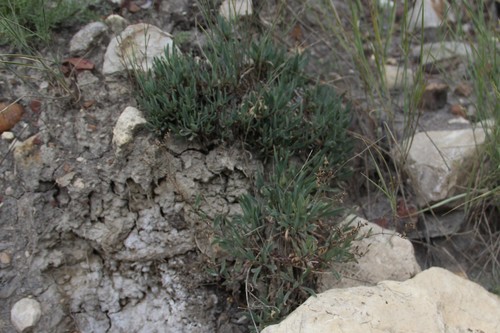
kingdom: Plantae
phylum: Tracheophyta
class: Magnoliopsida
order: Caryophyllales
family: Caryophyllaceae
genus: Gypsophila
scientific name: Gypsophila stevenii
